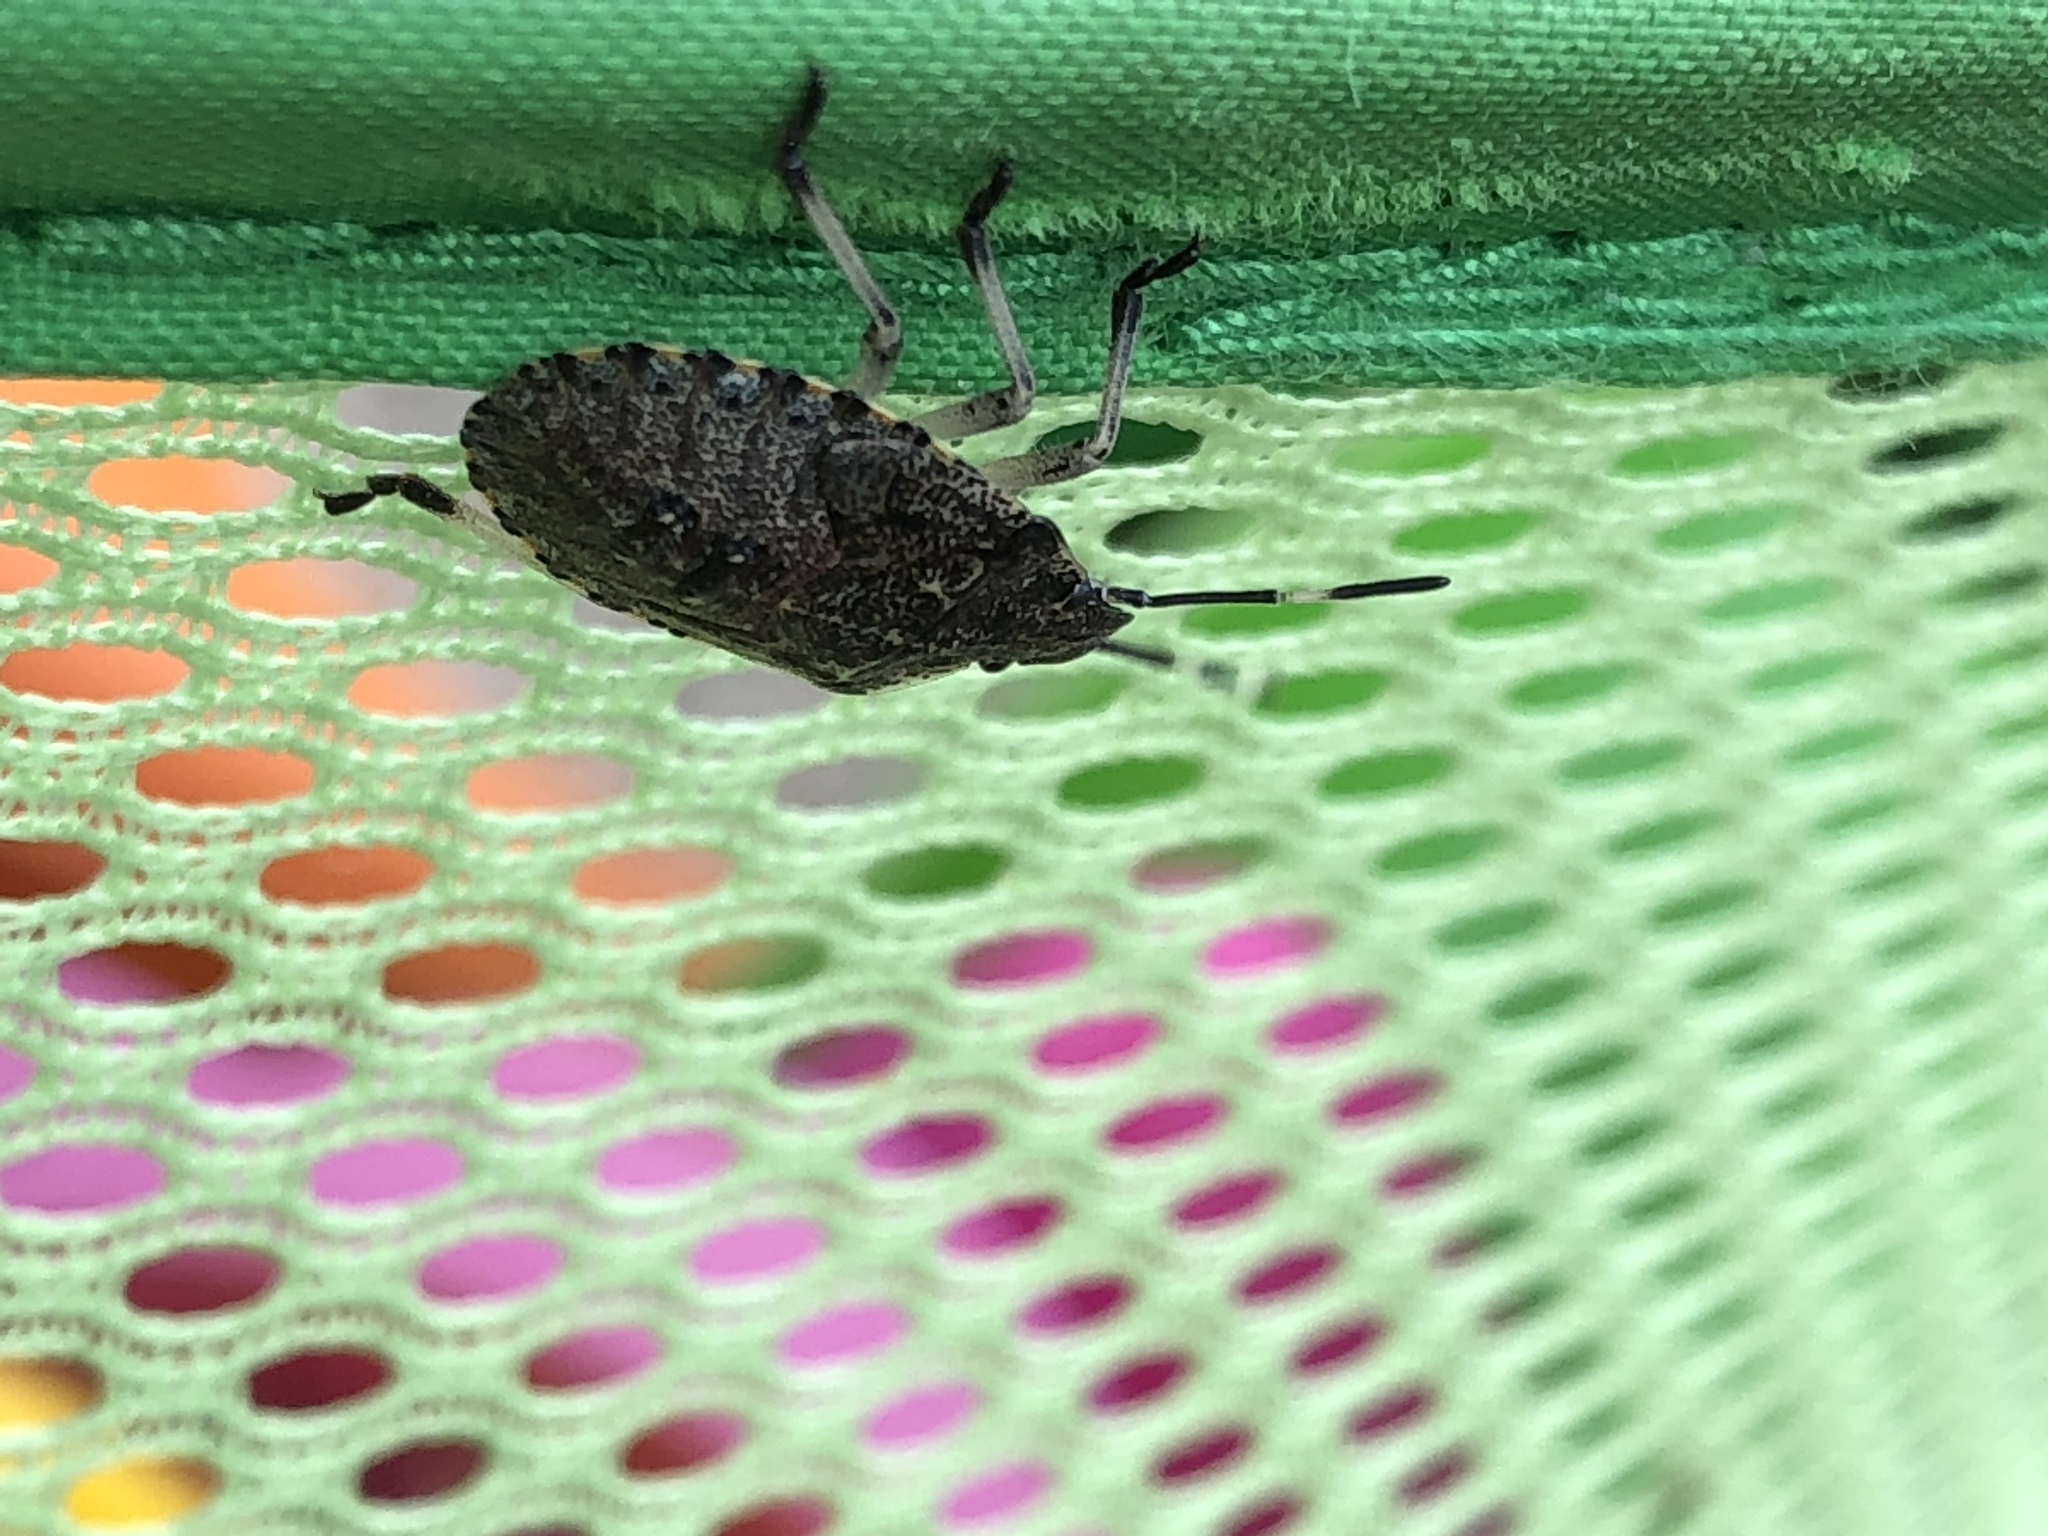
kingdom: Animalia
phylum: Arthropoda
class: Insecta
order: Hemiptera
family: Pentatomidae
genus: Rhaphigaster
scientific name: Rhaphigaster nebulosa
